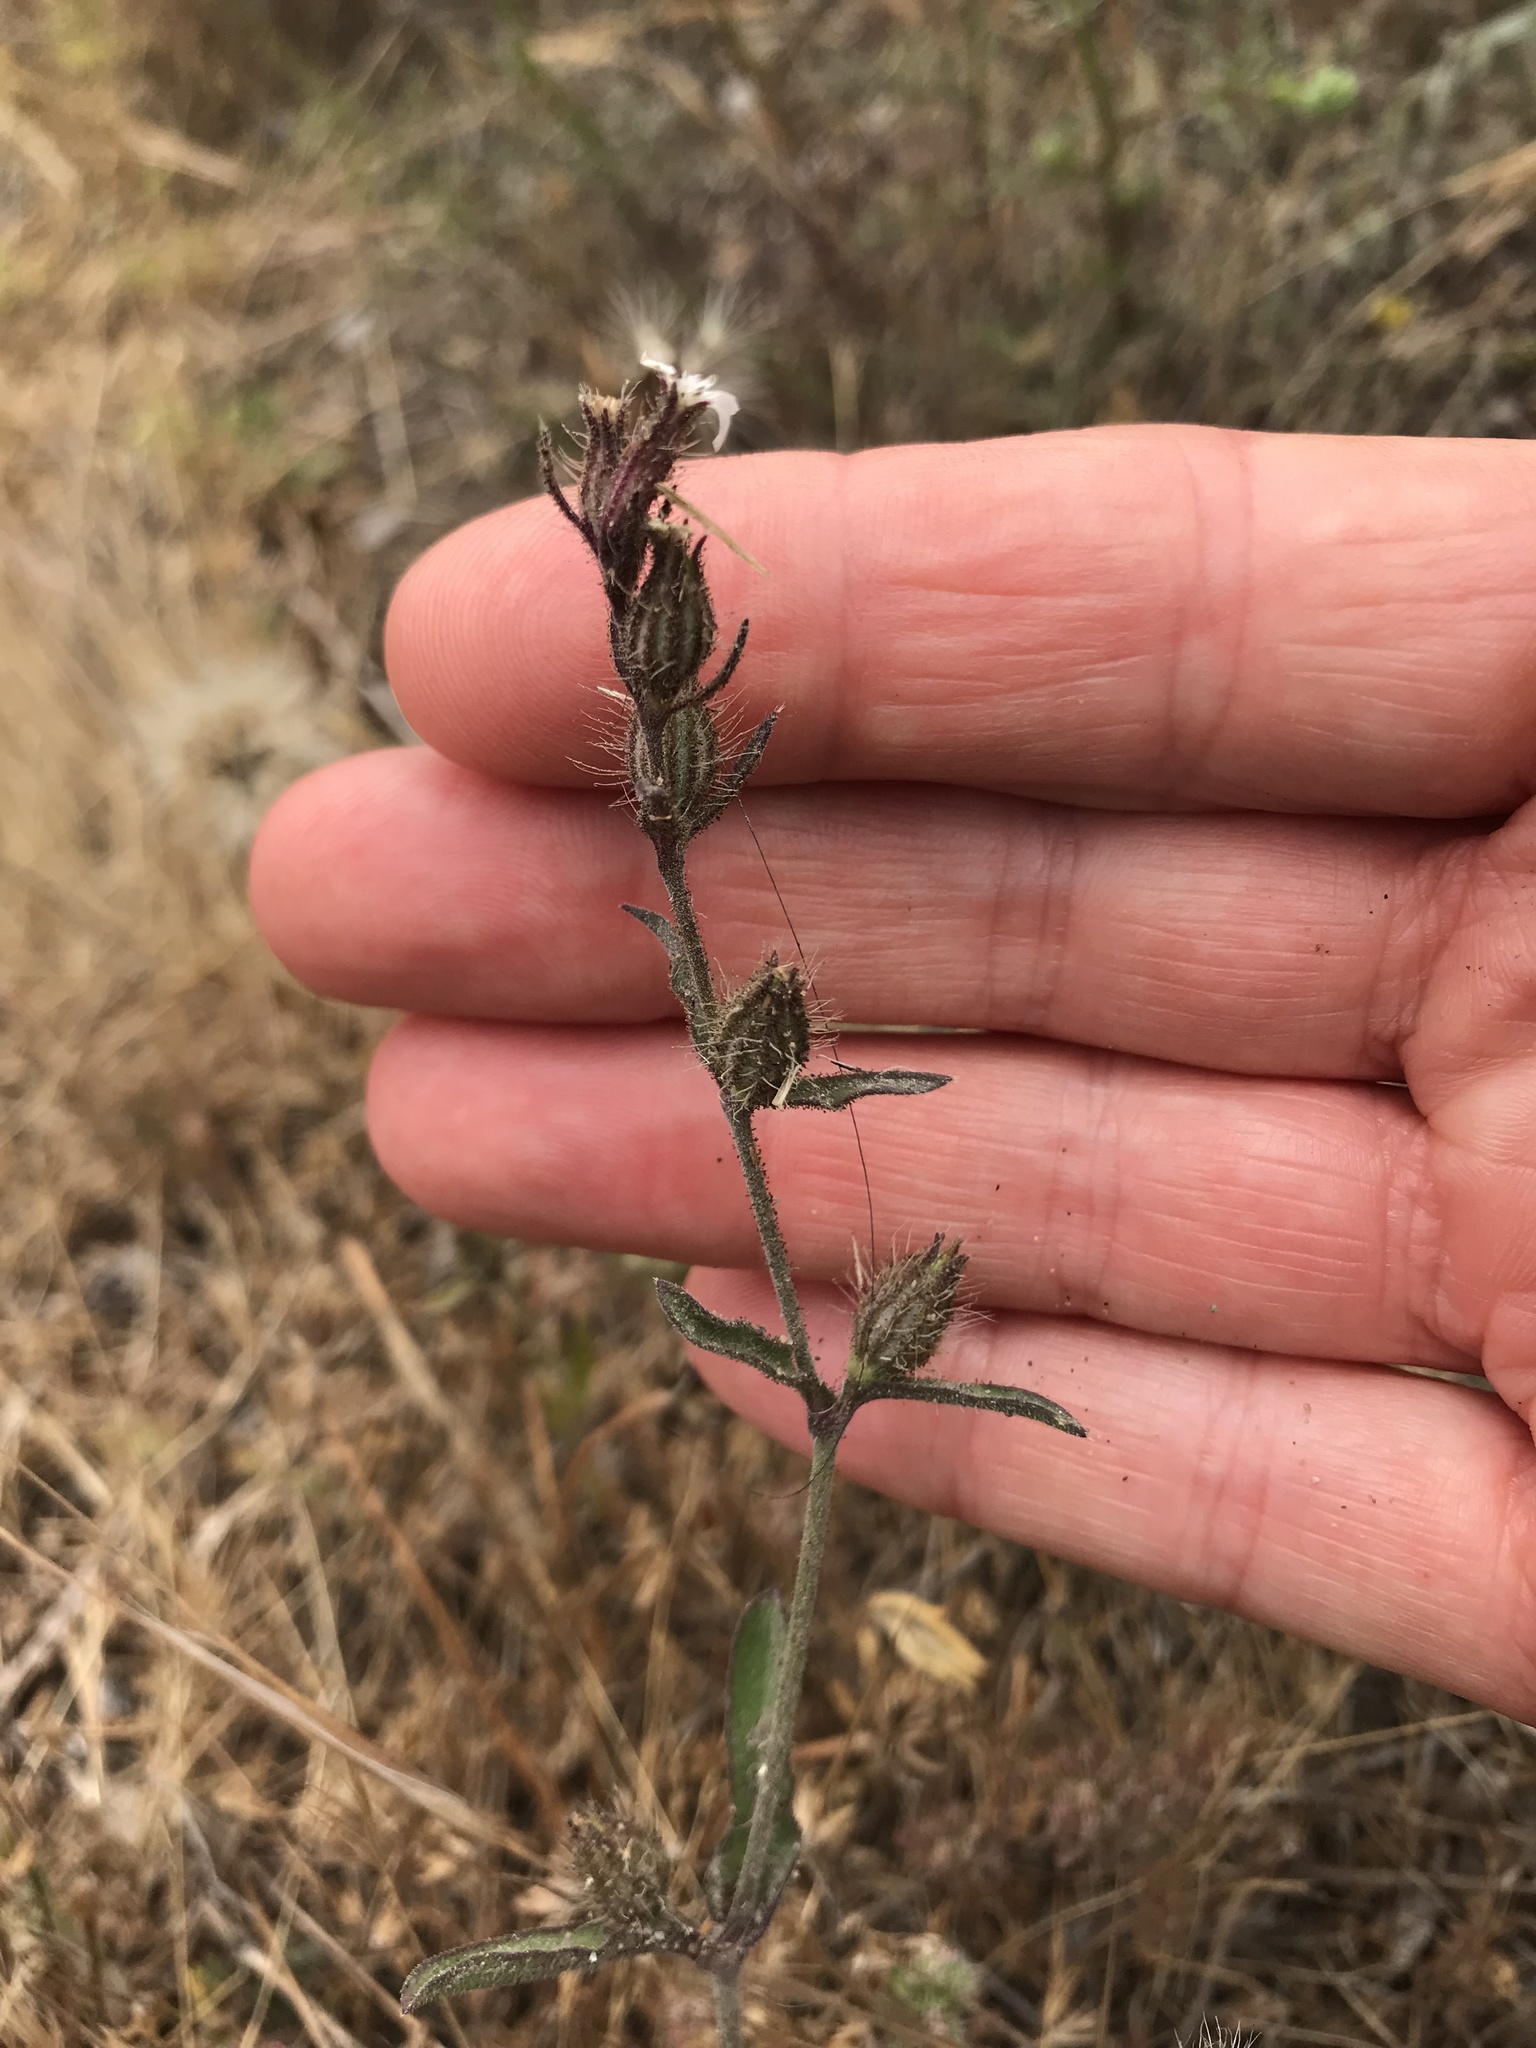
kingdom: Plantae
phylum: Tracheophyta
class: Magnoliopsida
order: Caryophyllales
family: Caryophyllaceae
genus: Silene
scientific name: Silene gallica
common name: Small-flowered catchfly
